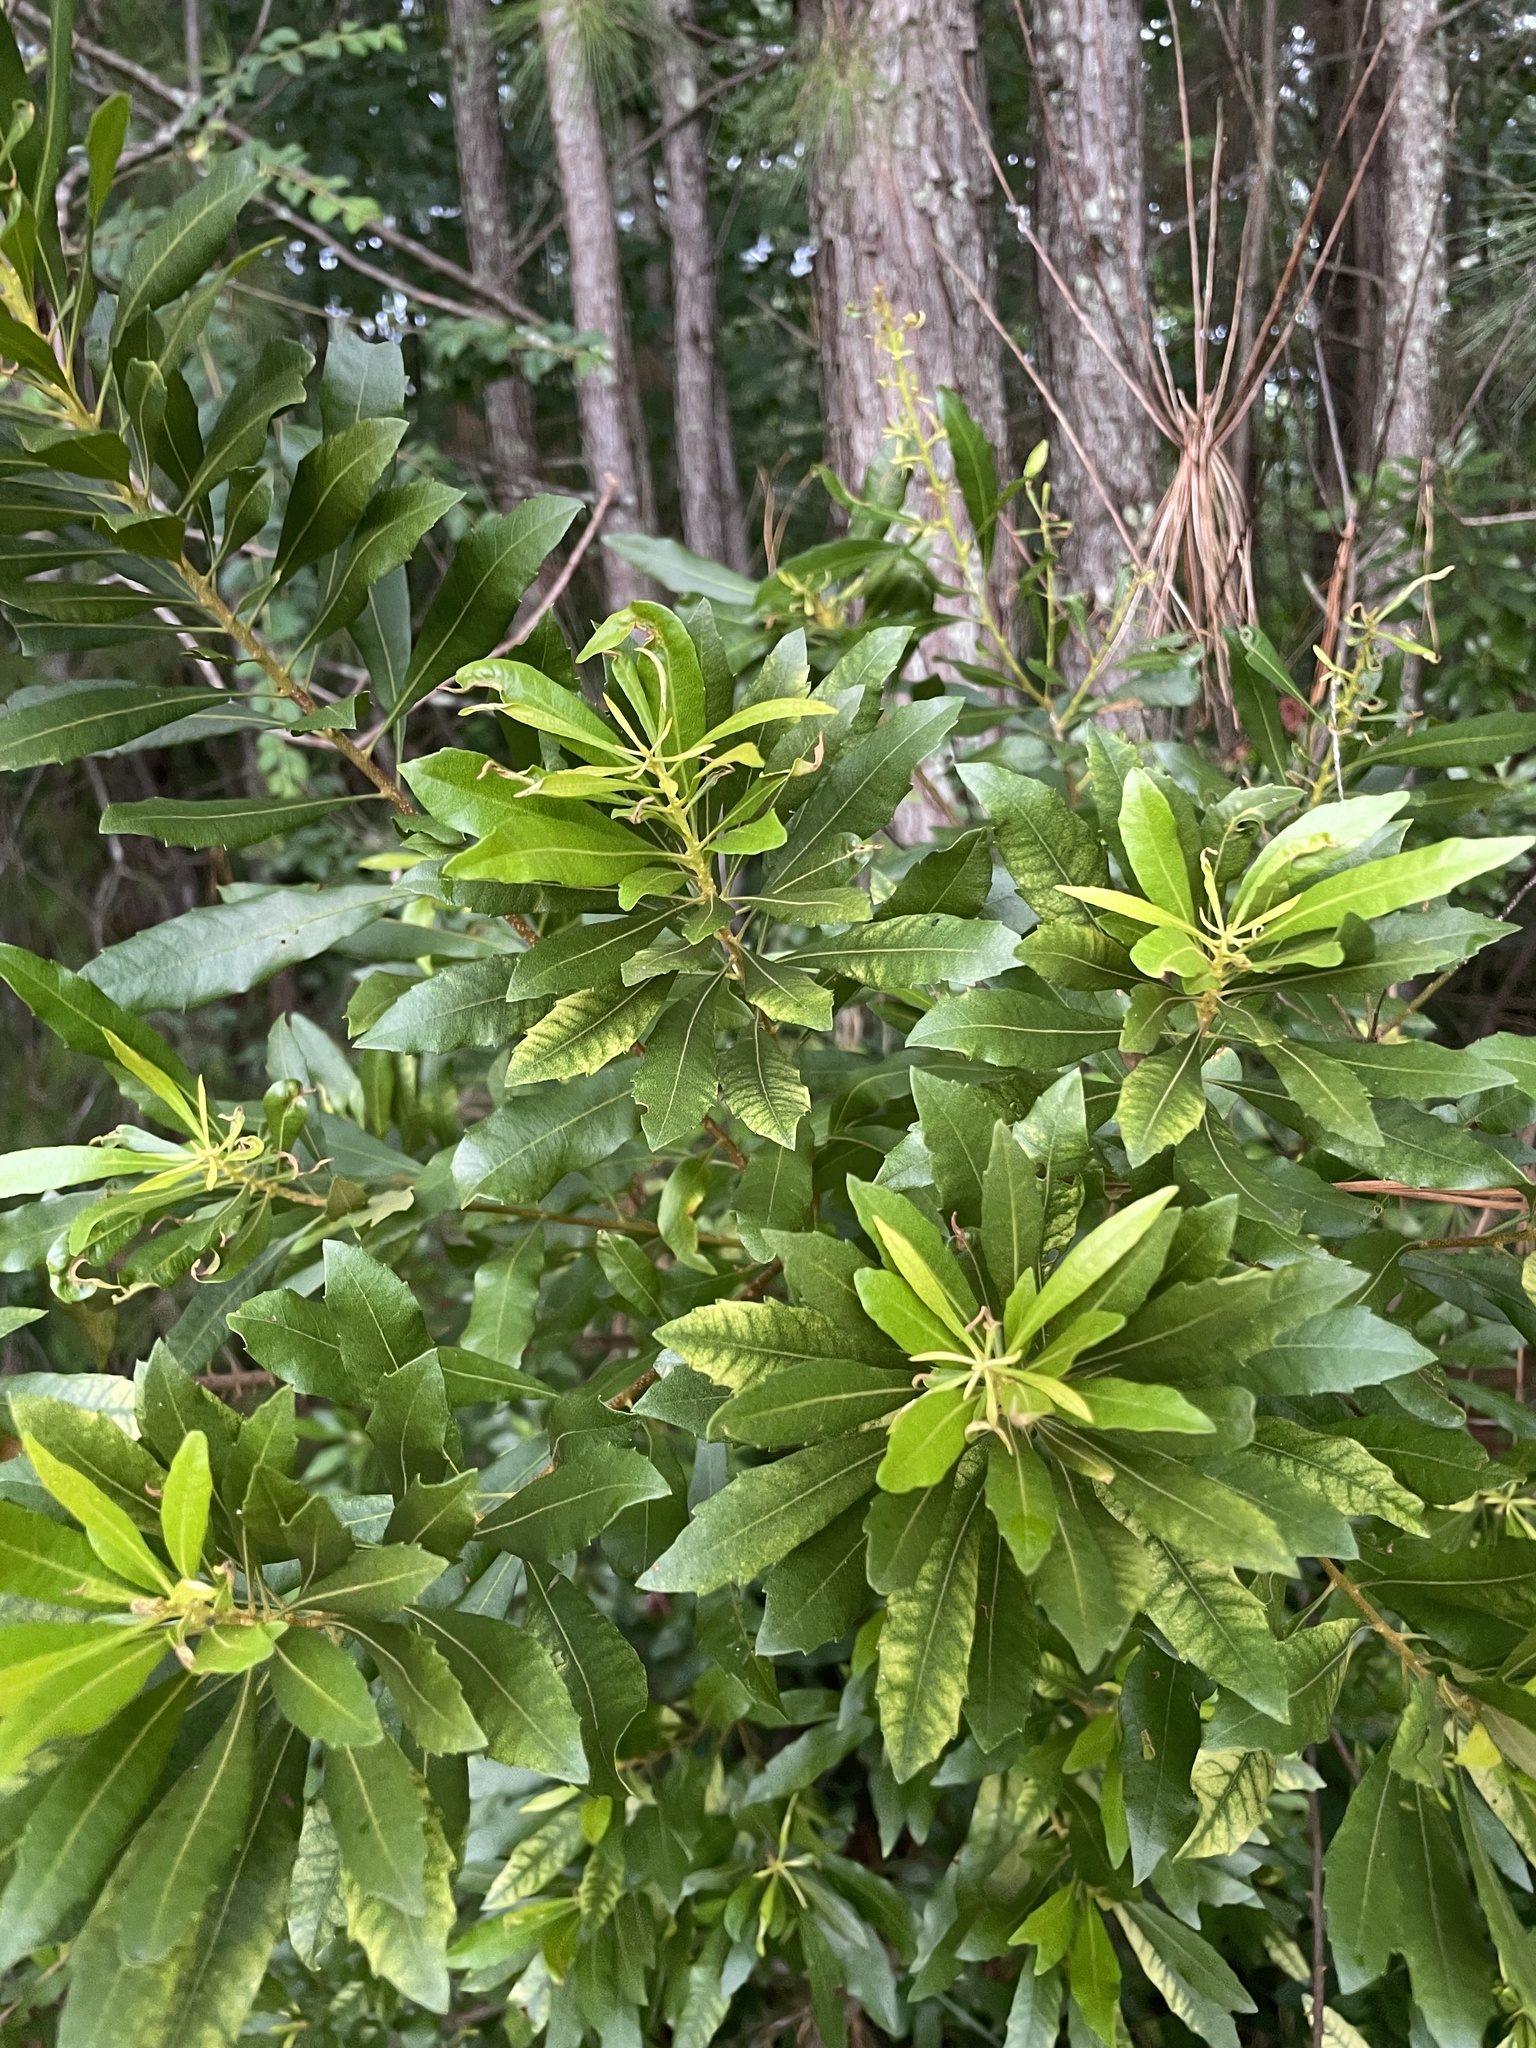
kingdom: Plantae
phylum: Tracheophyta
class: Magnoliopsida
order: Fagales
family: Myricaceae
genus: Morella
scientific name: Morella cerifera
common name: Wax myrtle
